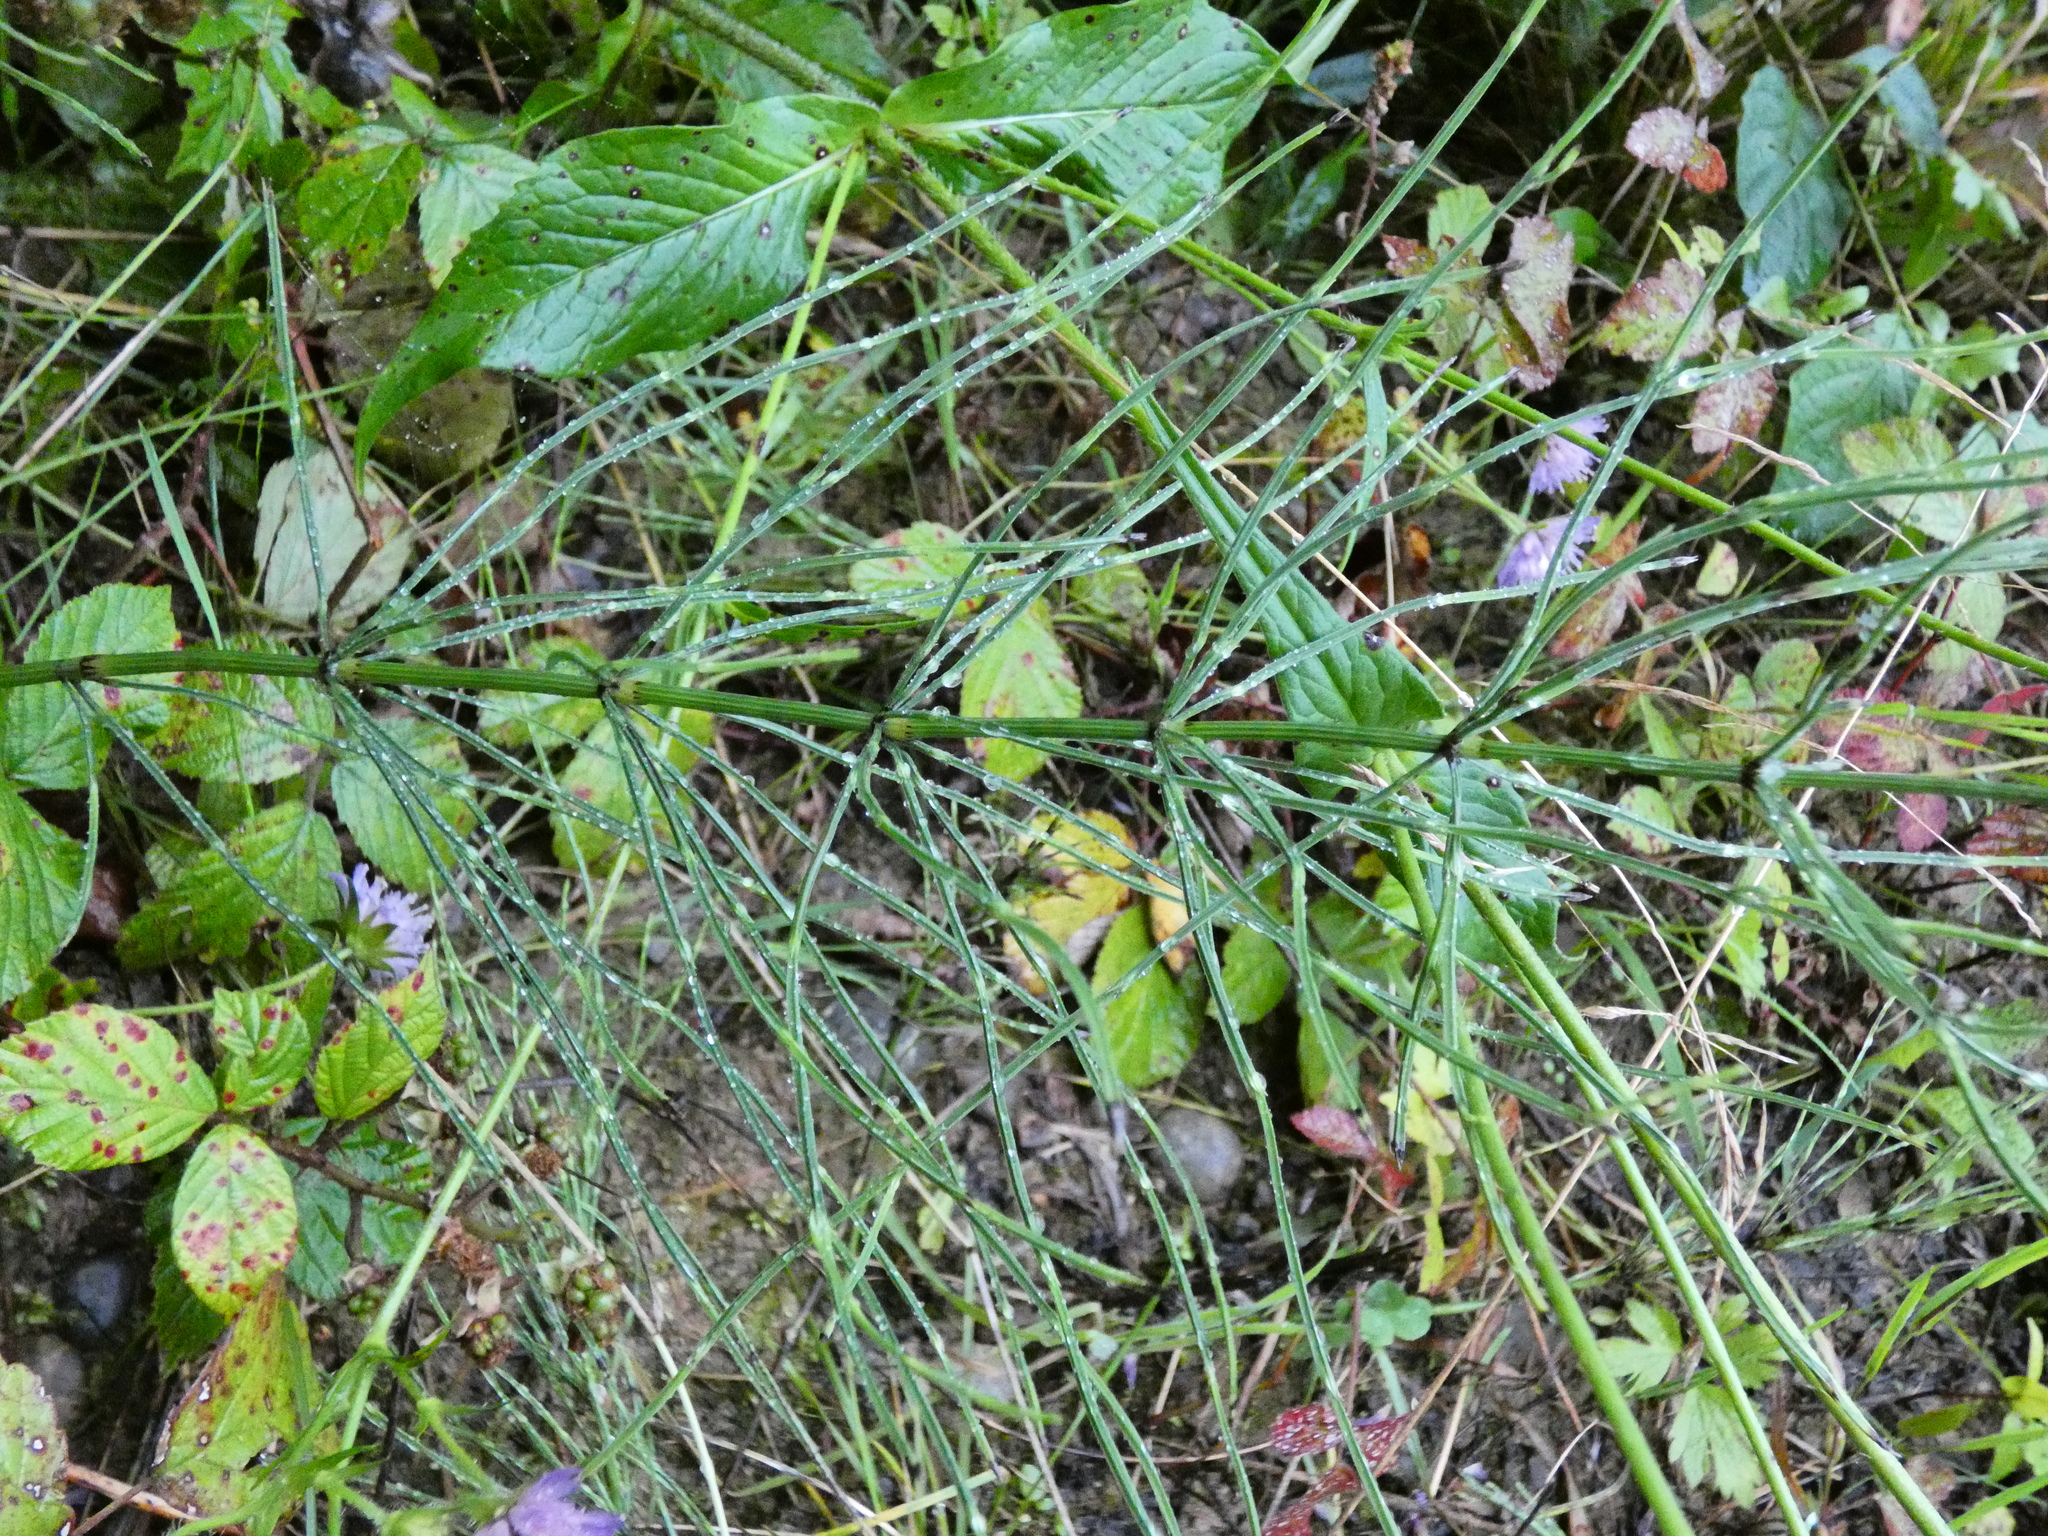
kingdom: Plantae
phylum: Tracheophyta
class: Polypodiopsida
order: Equisetales
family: Equisetaceae
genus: Equisetum
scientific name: Equisetum arvense
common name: Field horsetail
